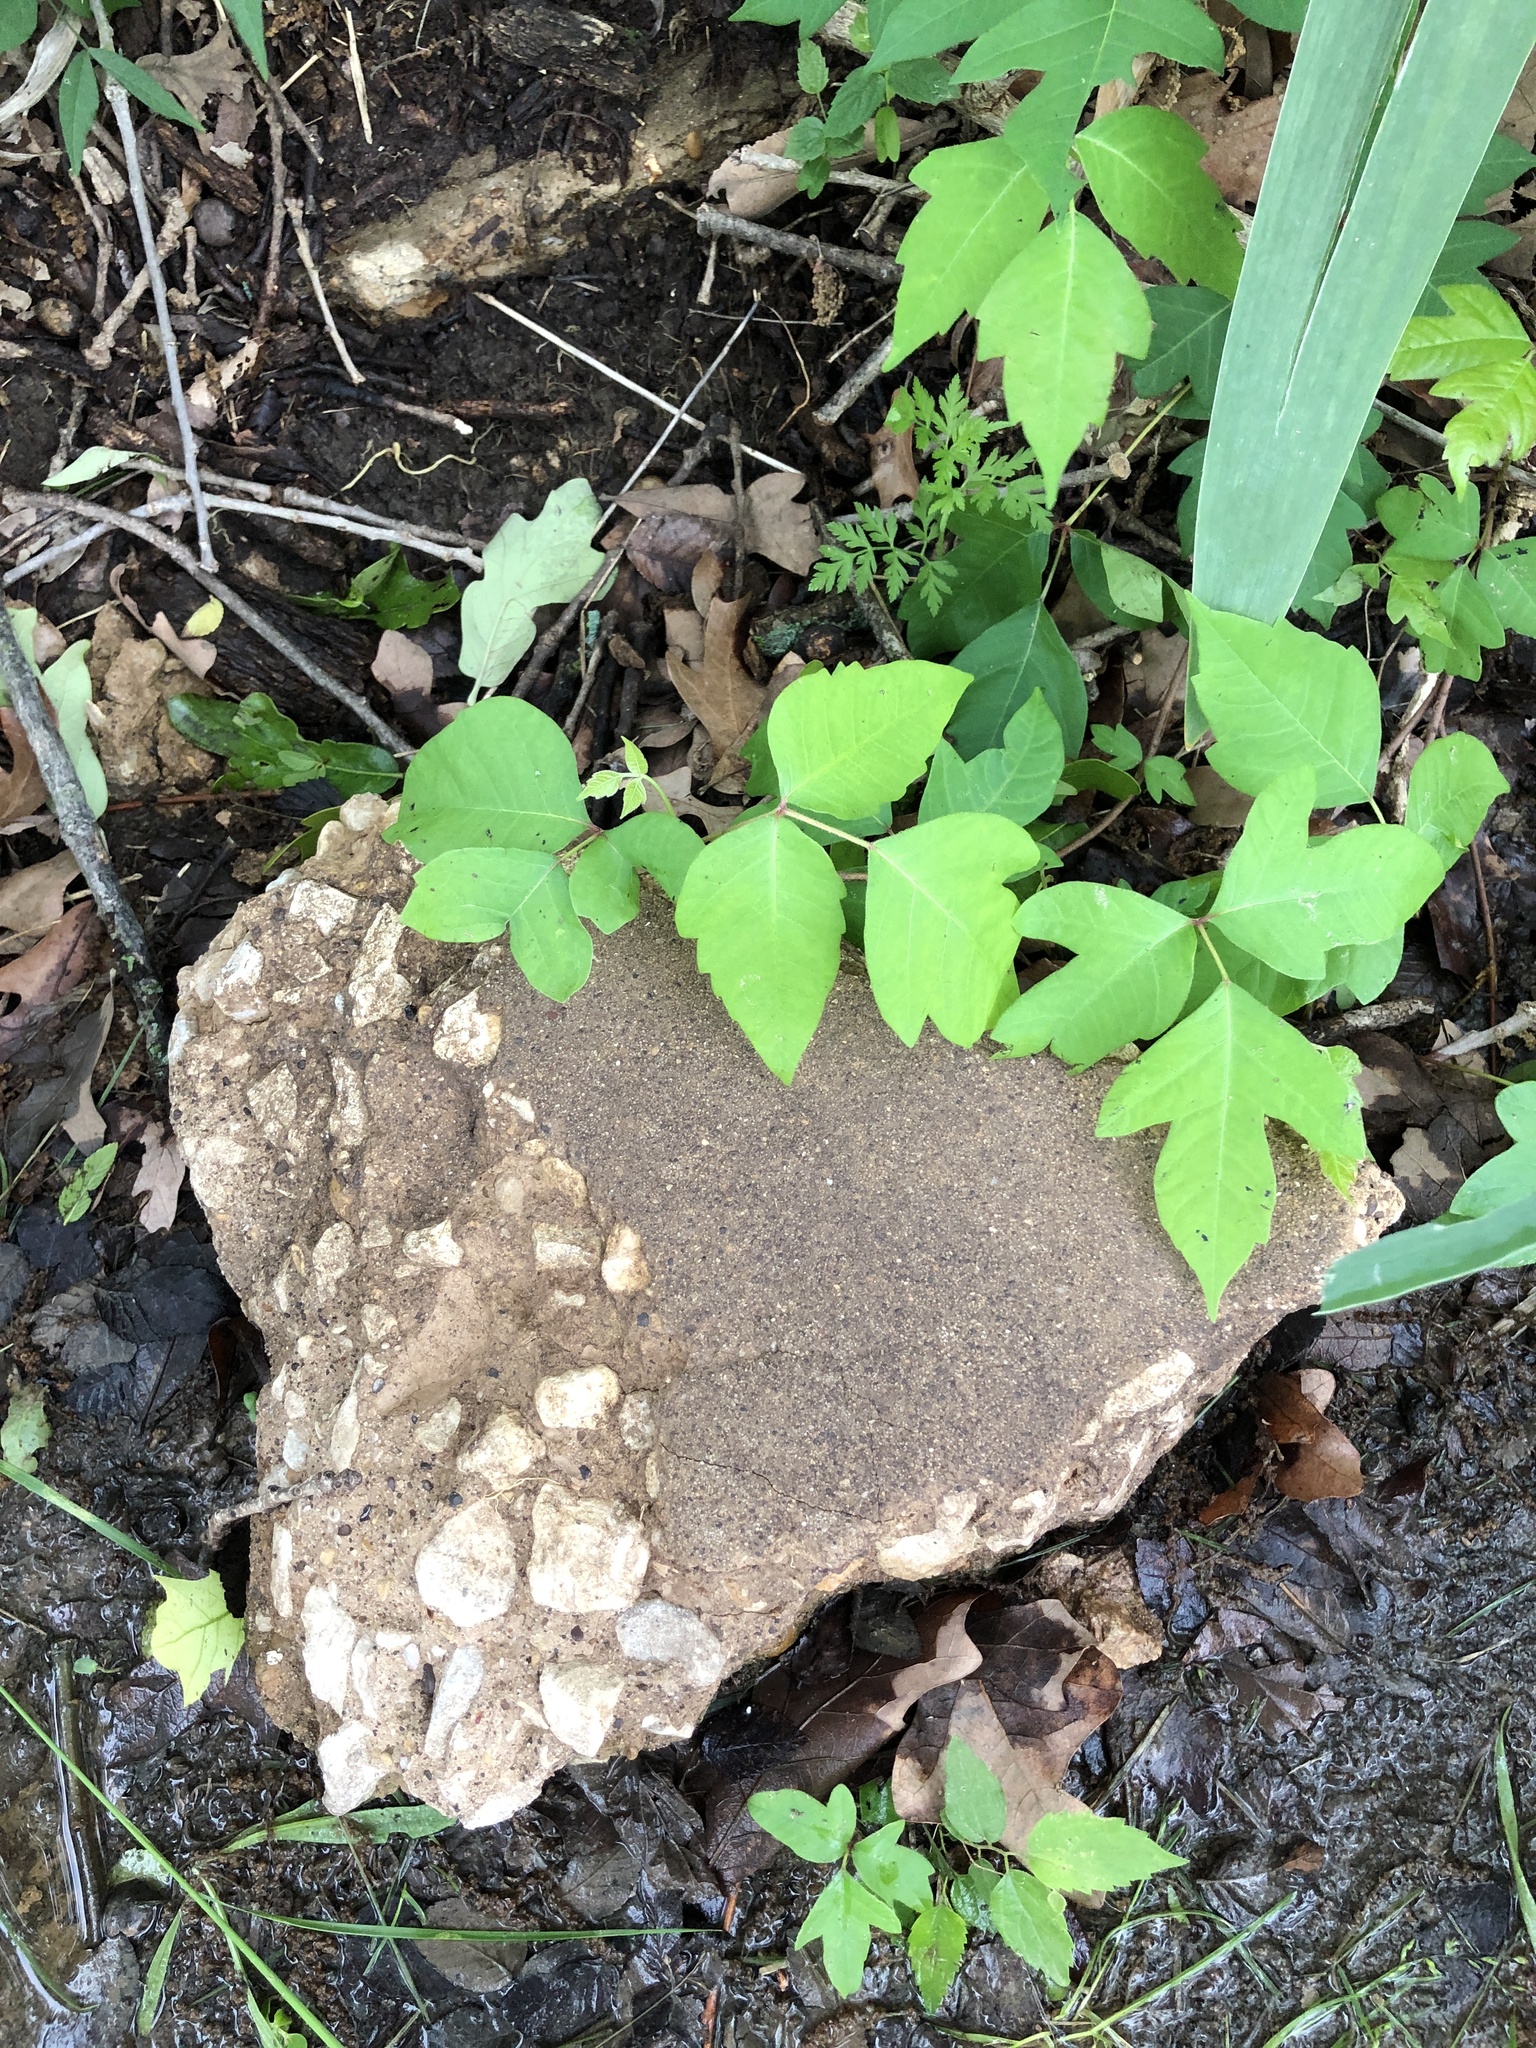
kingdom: Plantae
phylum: Tracheophyta
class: Magnoliopsida
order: Sapindales
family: Anacardiaceae
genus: Toxicodendron
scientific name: Toxicodendron radicans
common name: Poison ivy
